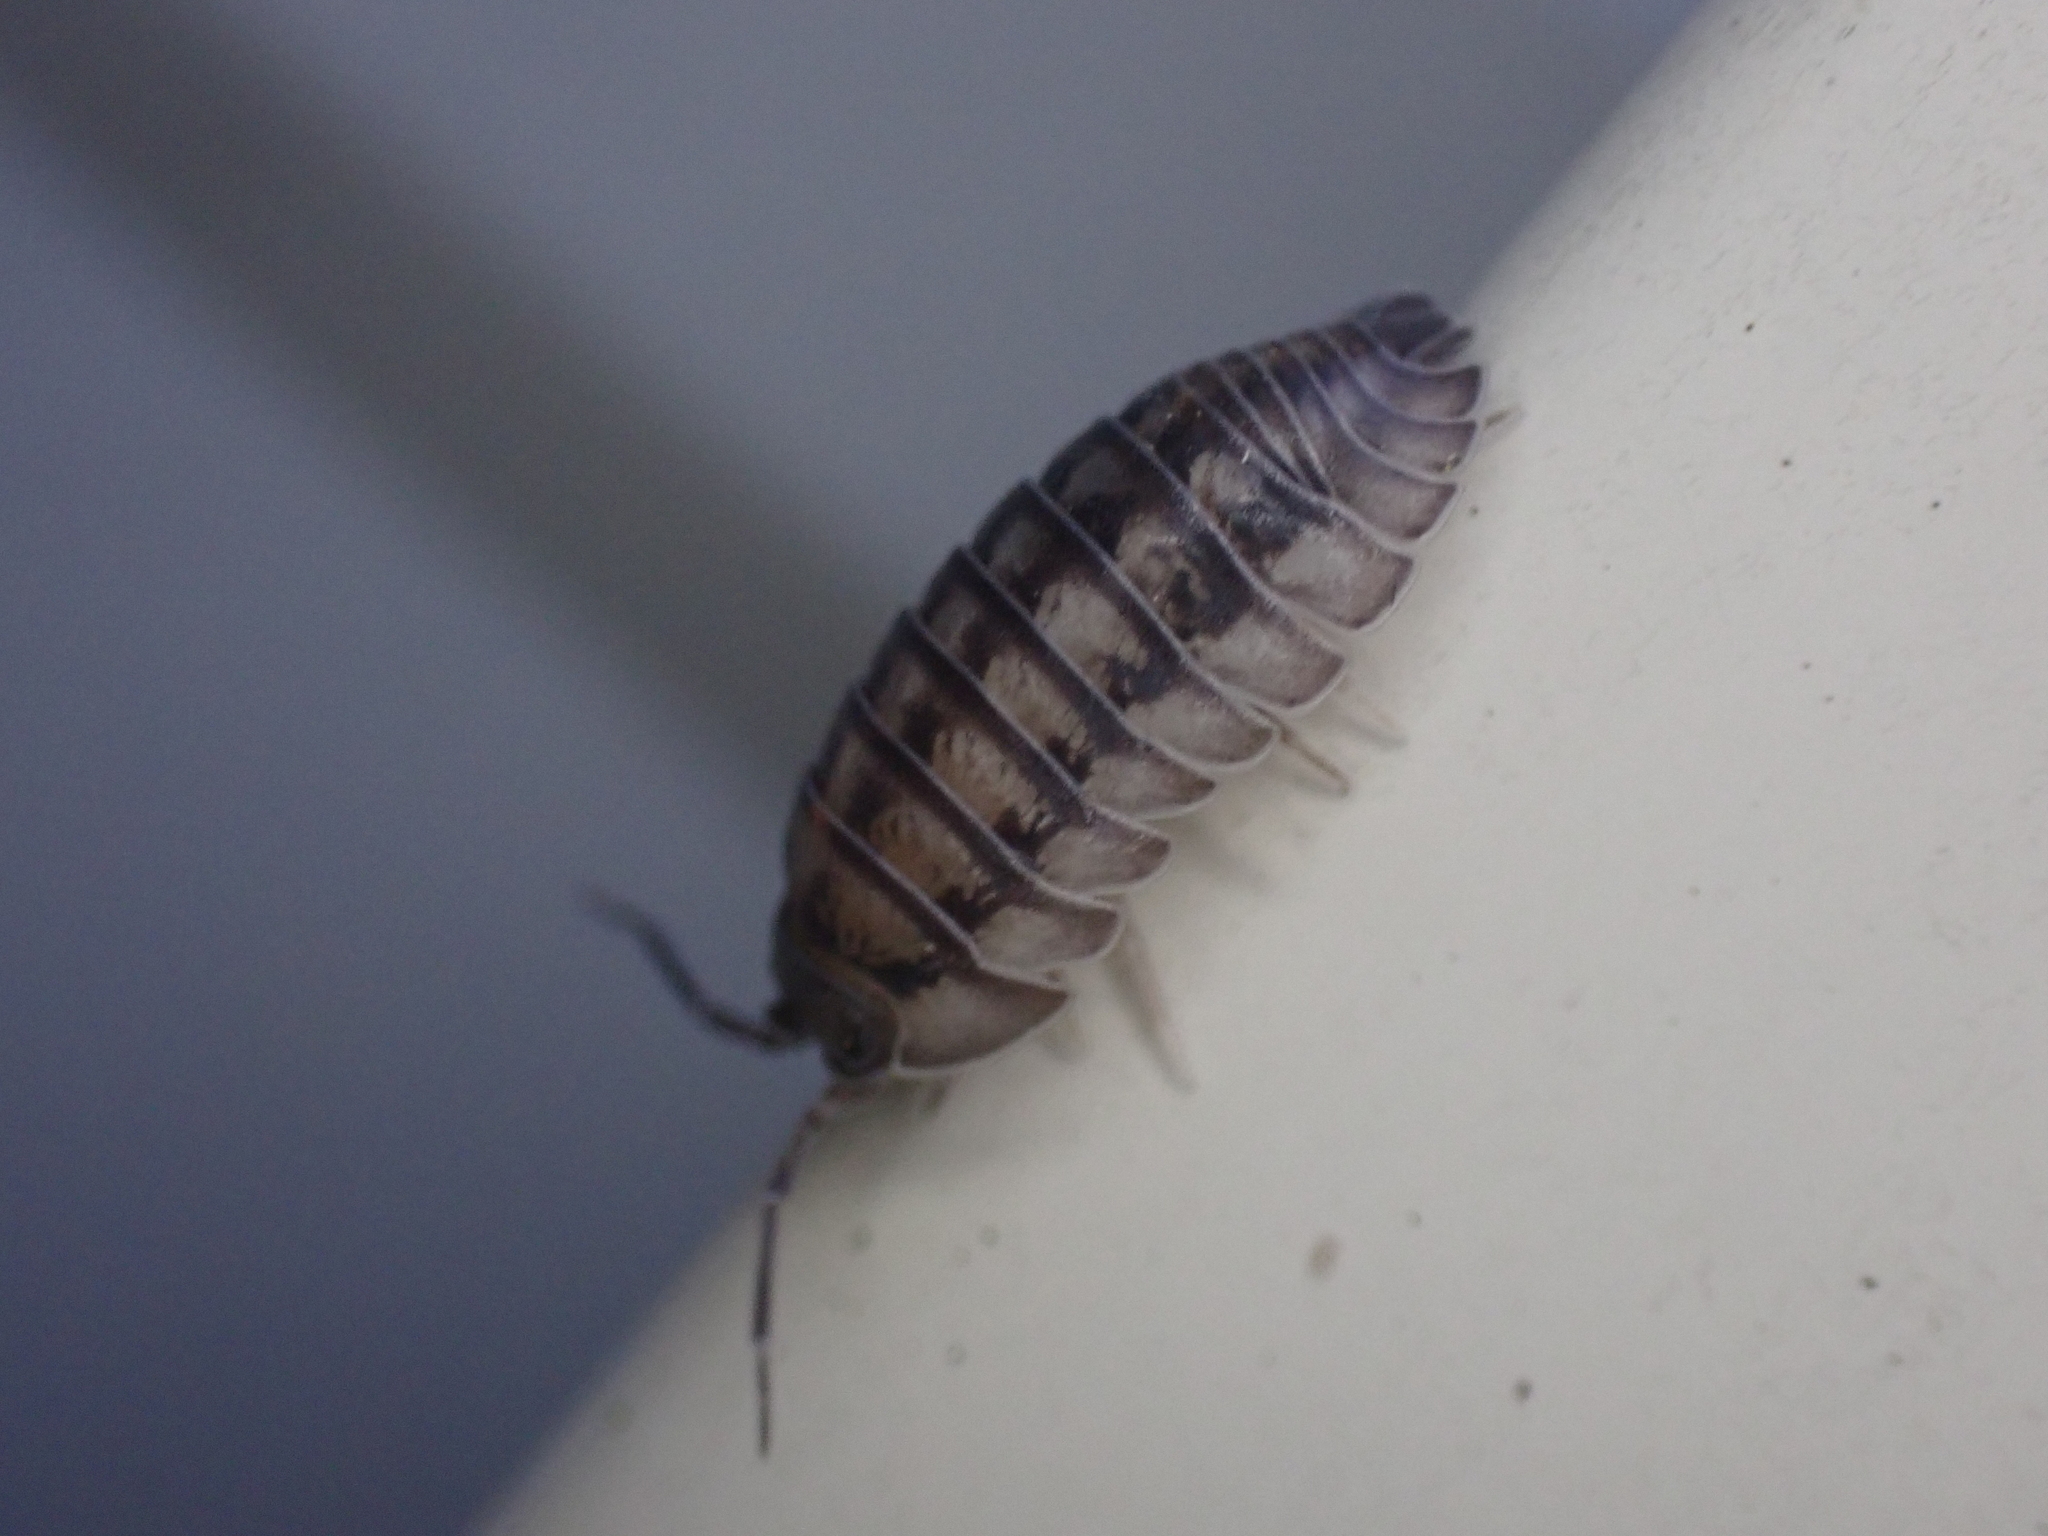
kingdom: Animalia
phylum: Arthropoda
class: Malacostraca
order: Isopoda
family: Armadillidiidae
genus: Armadillidium
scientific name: Armadillidium nasatum
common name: Isopod
